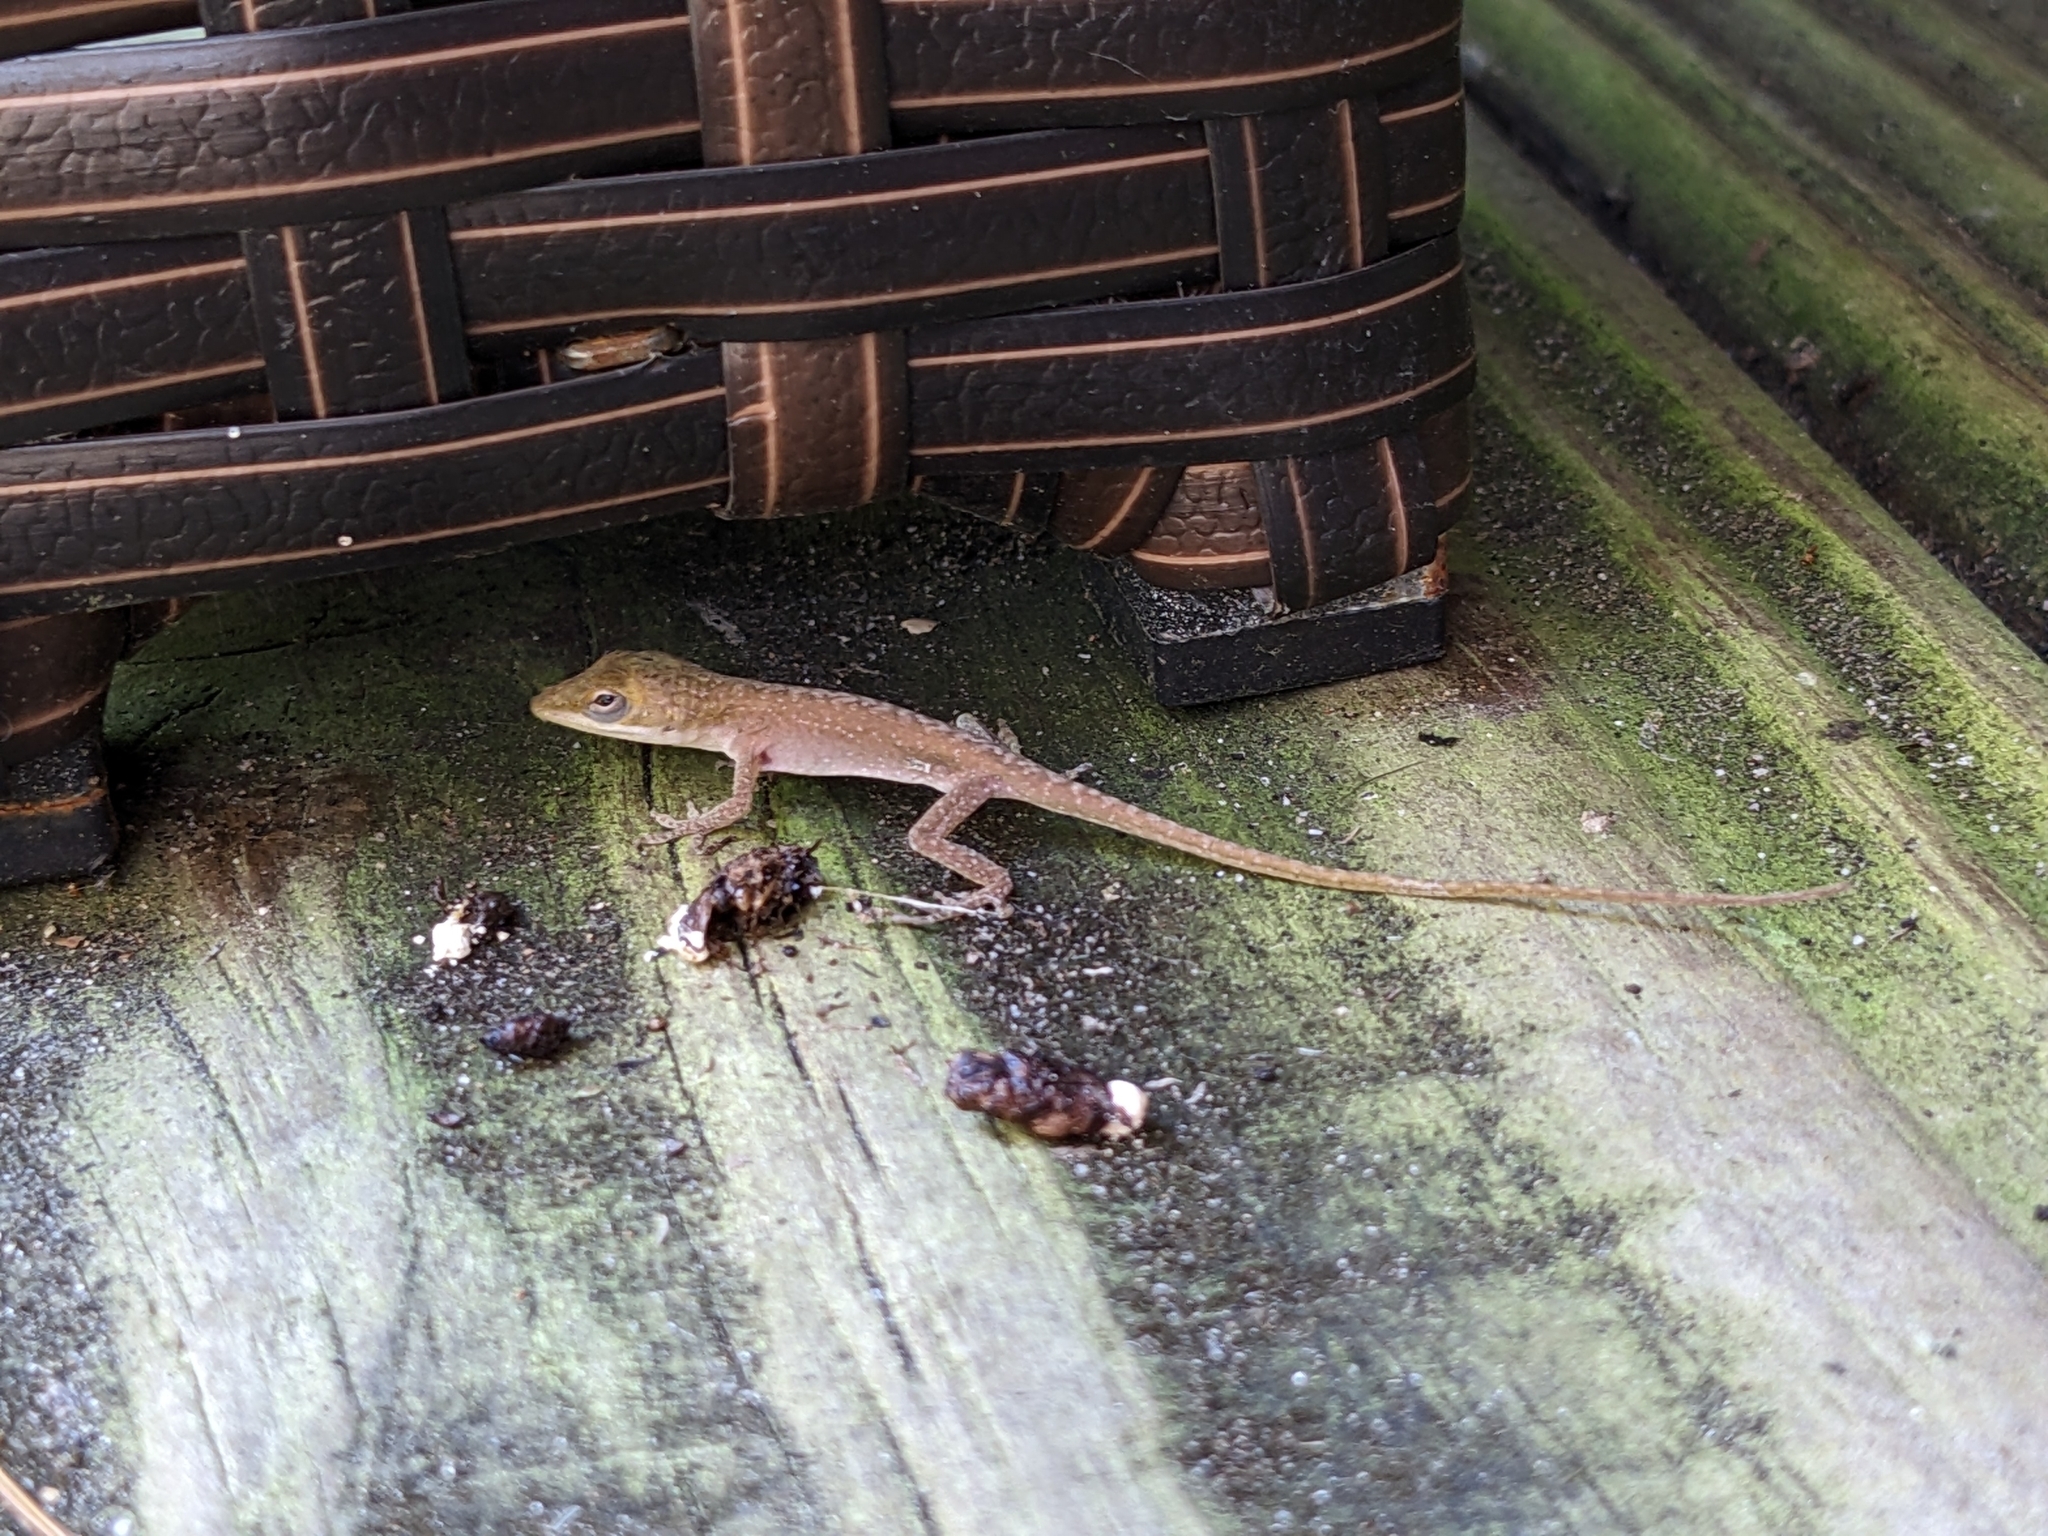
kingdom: Animalia
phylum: Chordata
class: Squamata
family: Dactyloidae
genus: Anolis
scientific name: Anolis carolinensis
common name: Green anole
